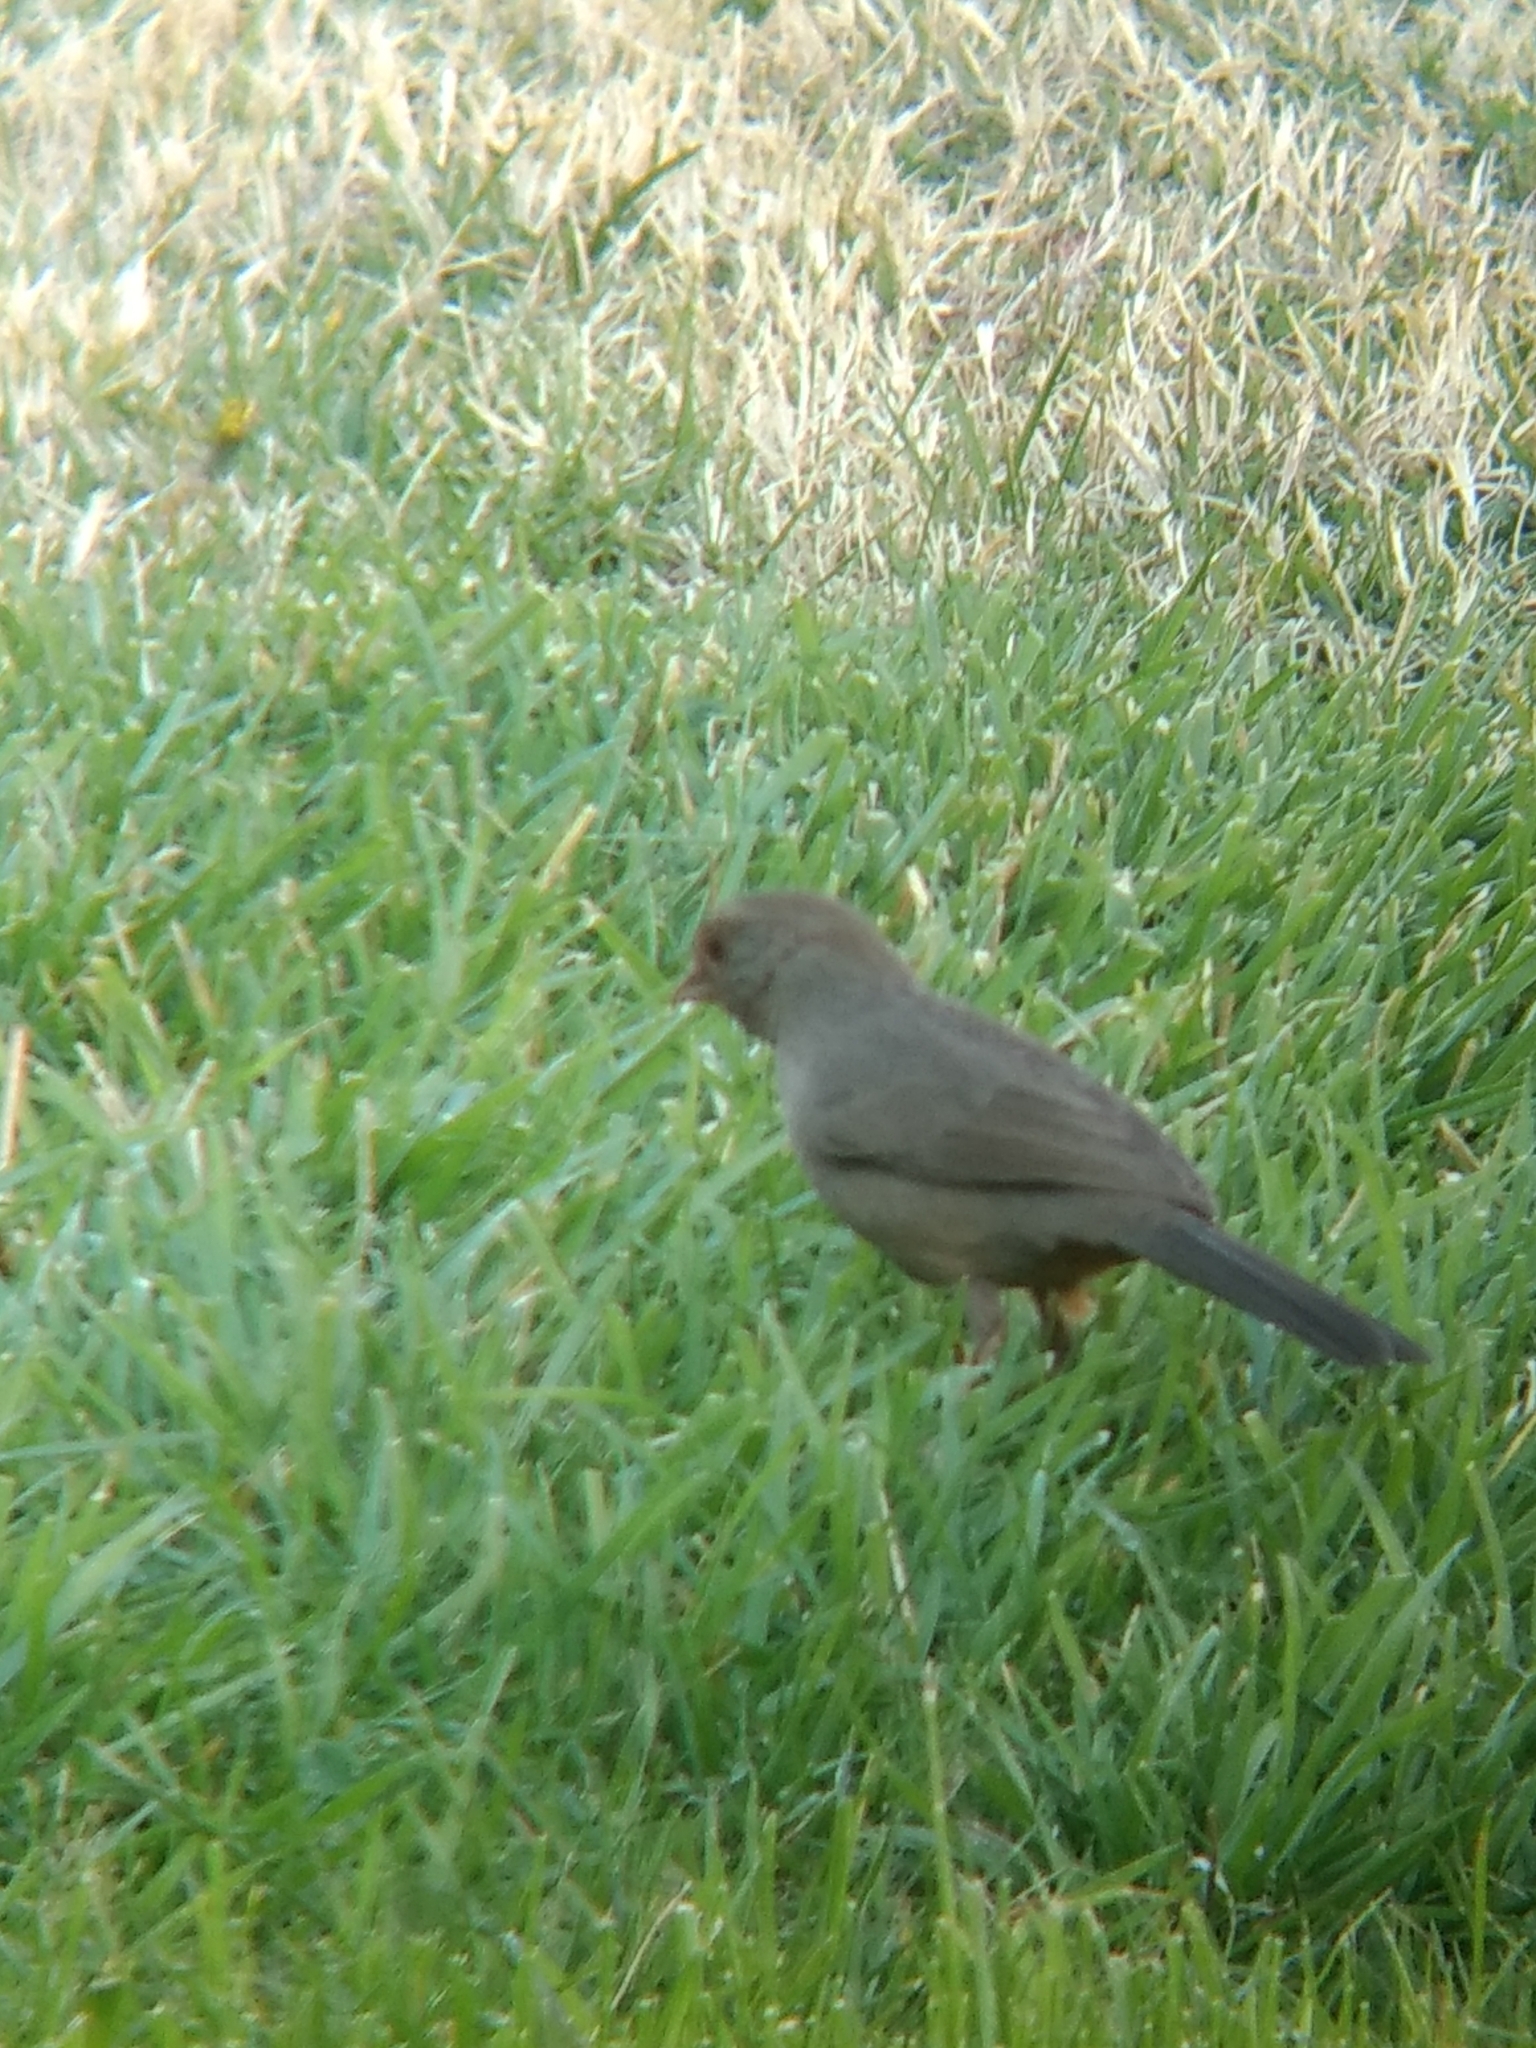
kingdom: Animalia
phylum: Chordata
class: Aves
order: Passeriformes
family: Passerellidae
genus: Melozone
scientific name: Melozone crissalis
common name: California towhee
